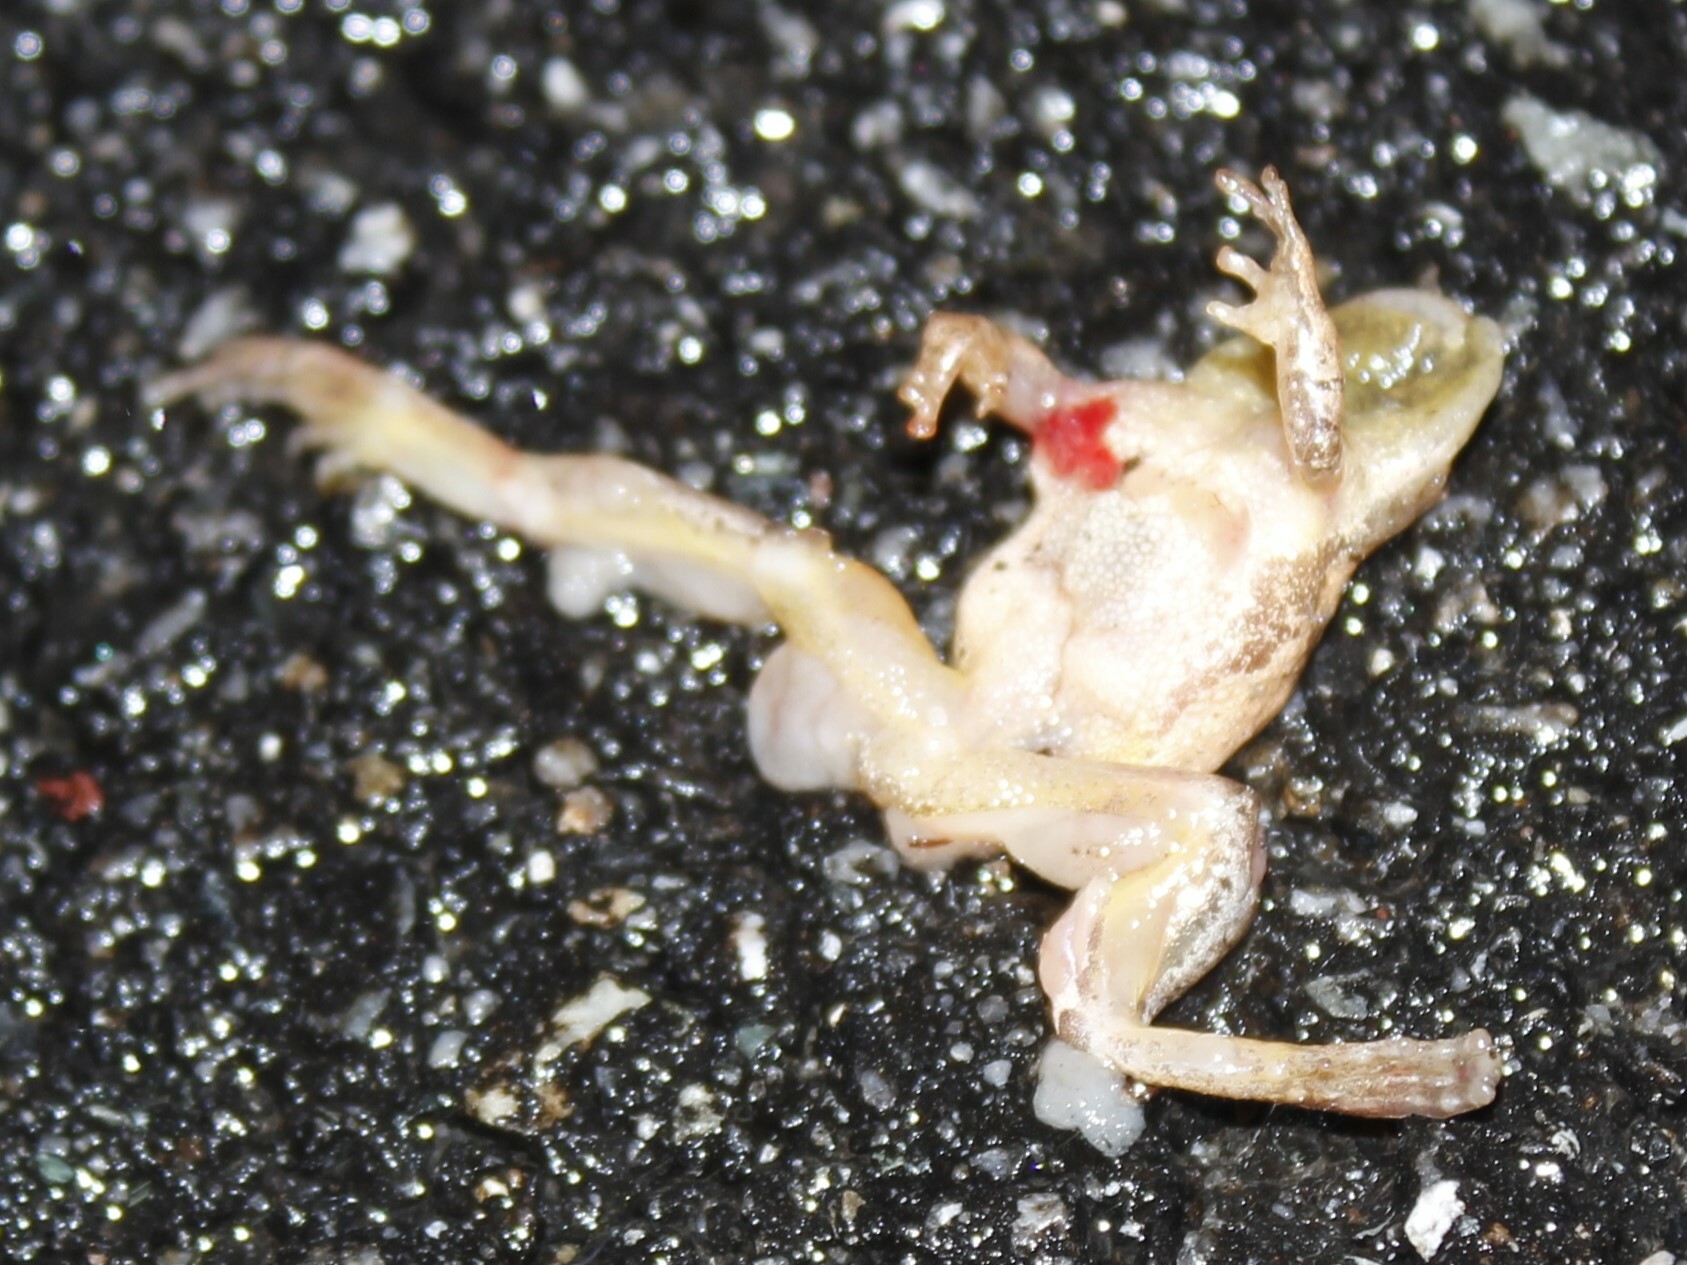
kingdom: Animalia
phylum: Chordata
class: Amphibia
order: Anura
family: Hylidae
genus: Pseudacris
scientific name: Pseudacris crucifer
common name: Spring peeper
